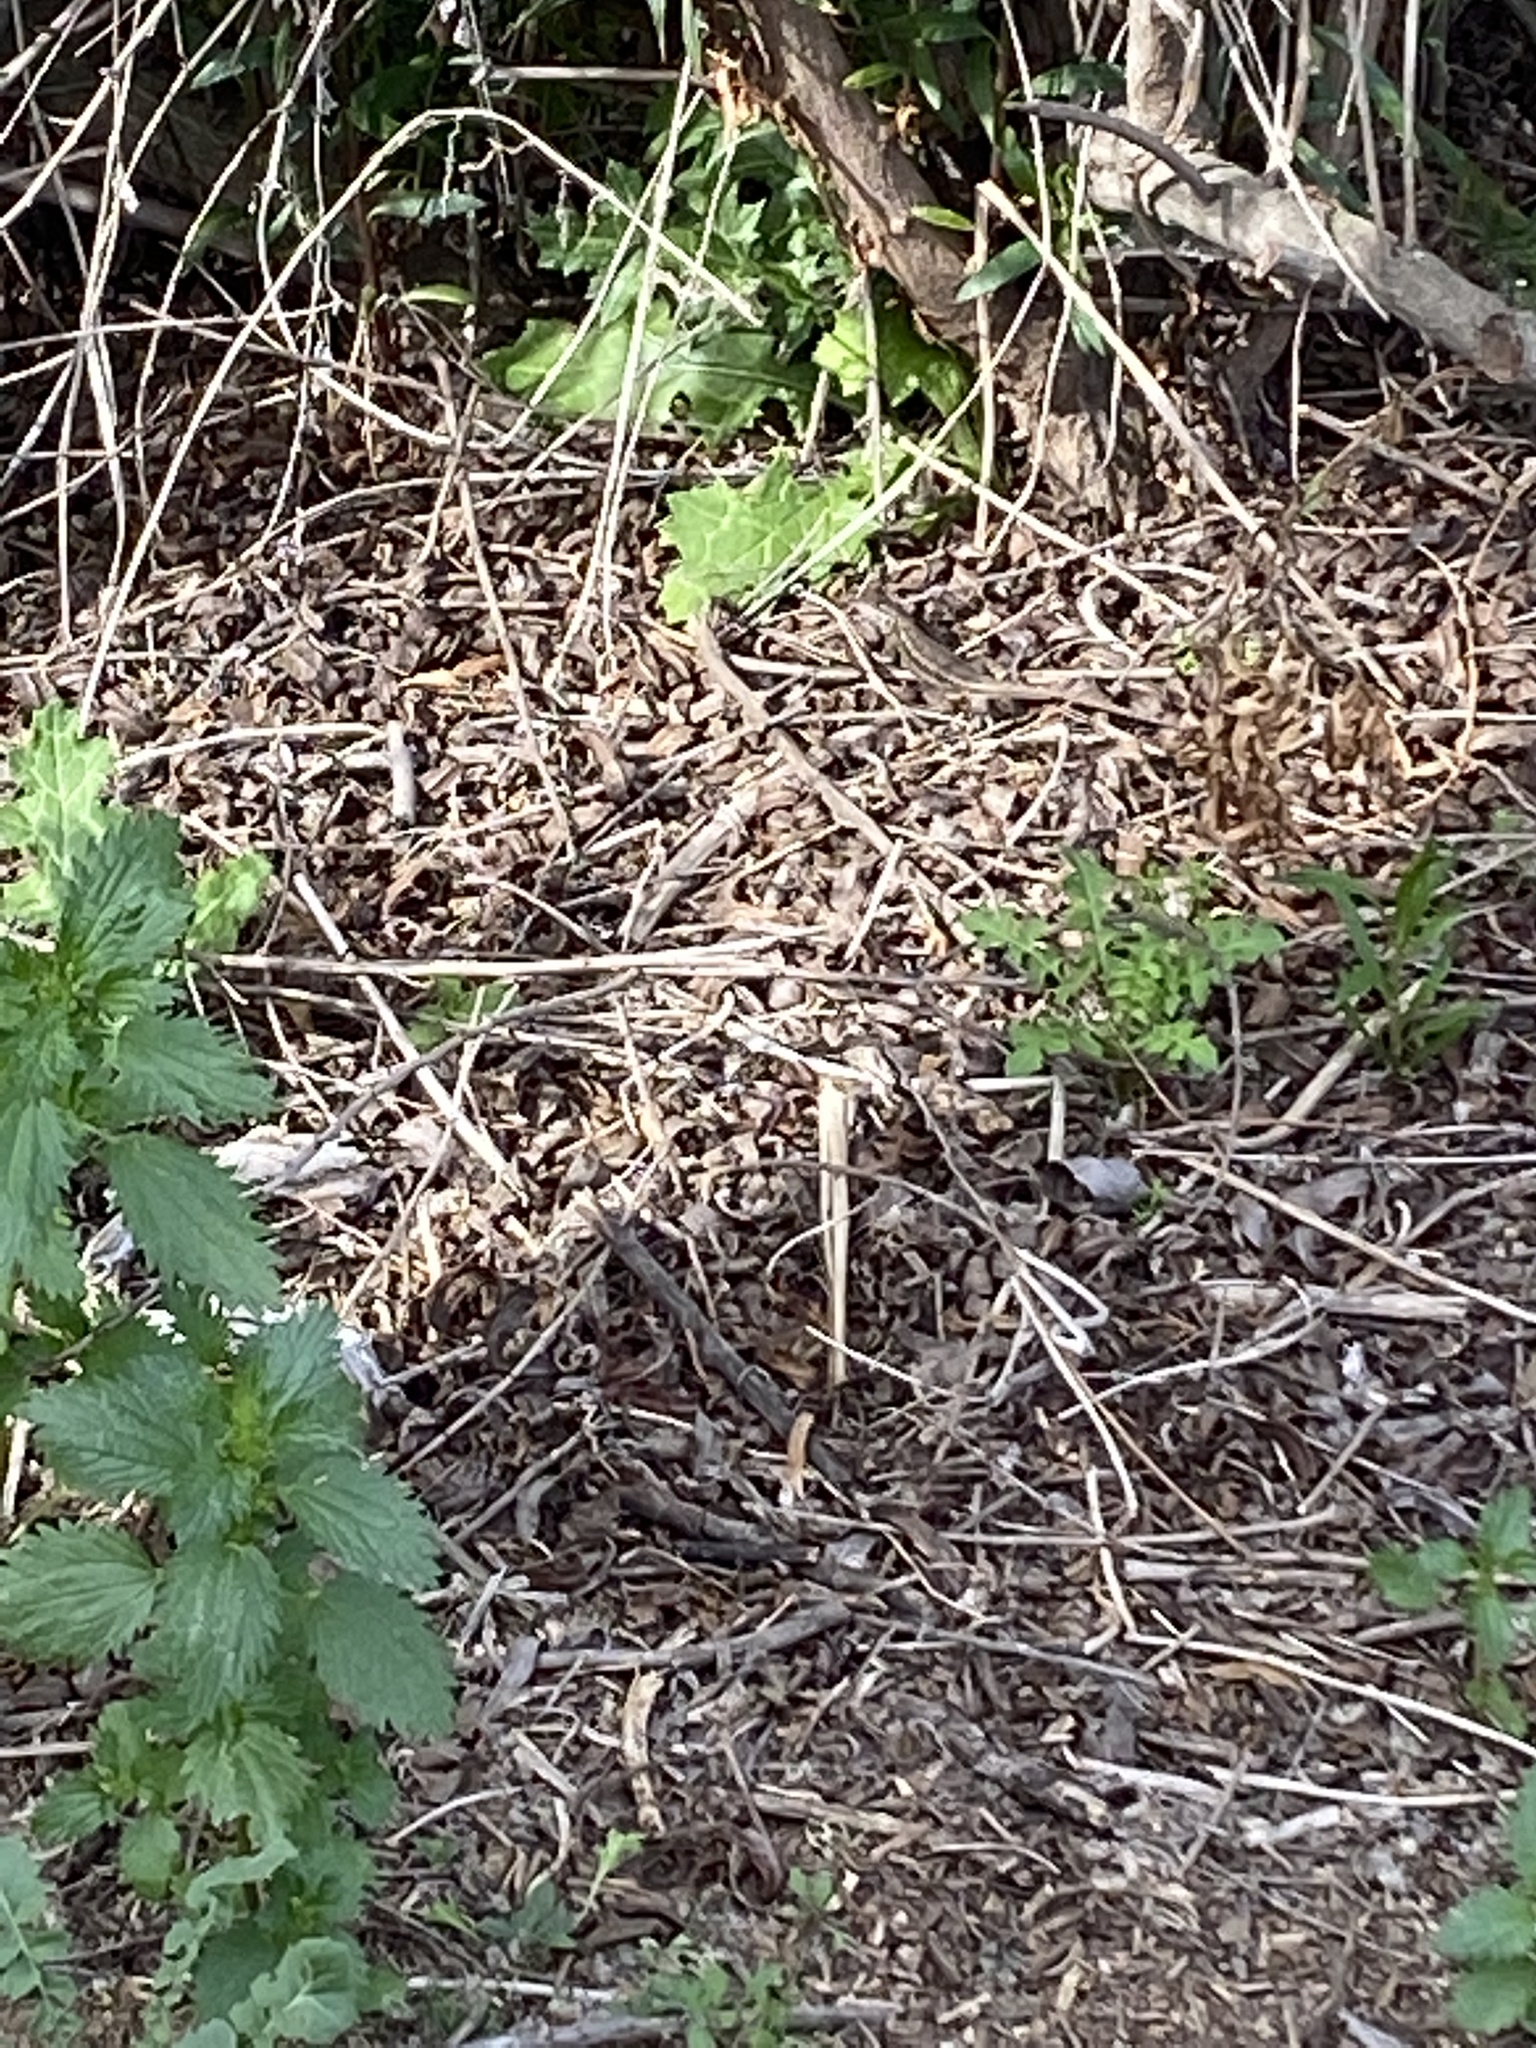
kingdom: Animalia
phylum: Chordata
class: Squamata
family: Phrynosomatidae
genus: Sceloporus
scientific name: Sceloporus occidentalis
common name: Western fence lizard
